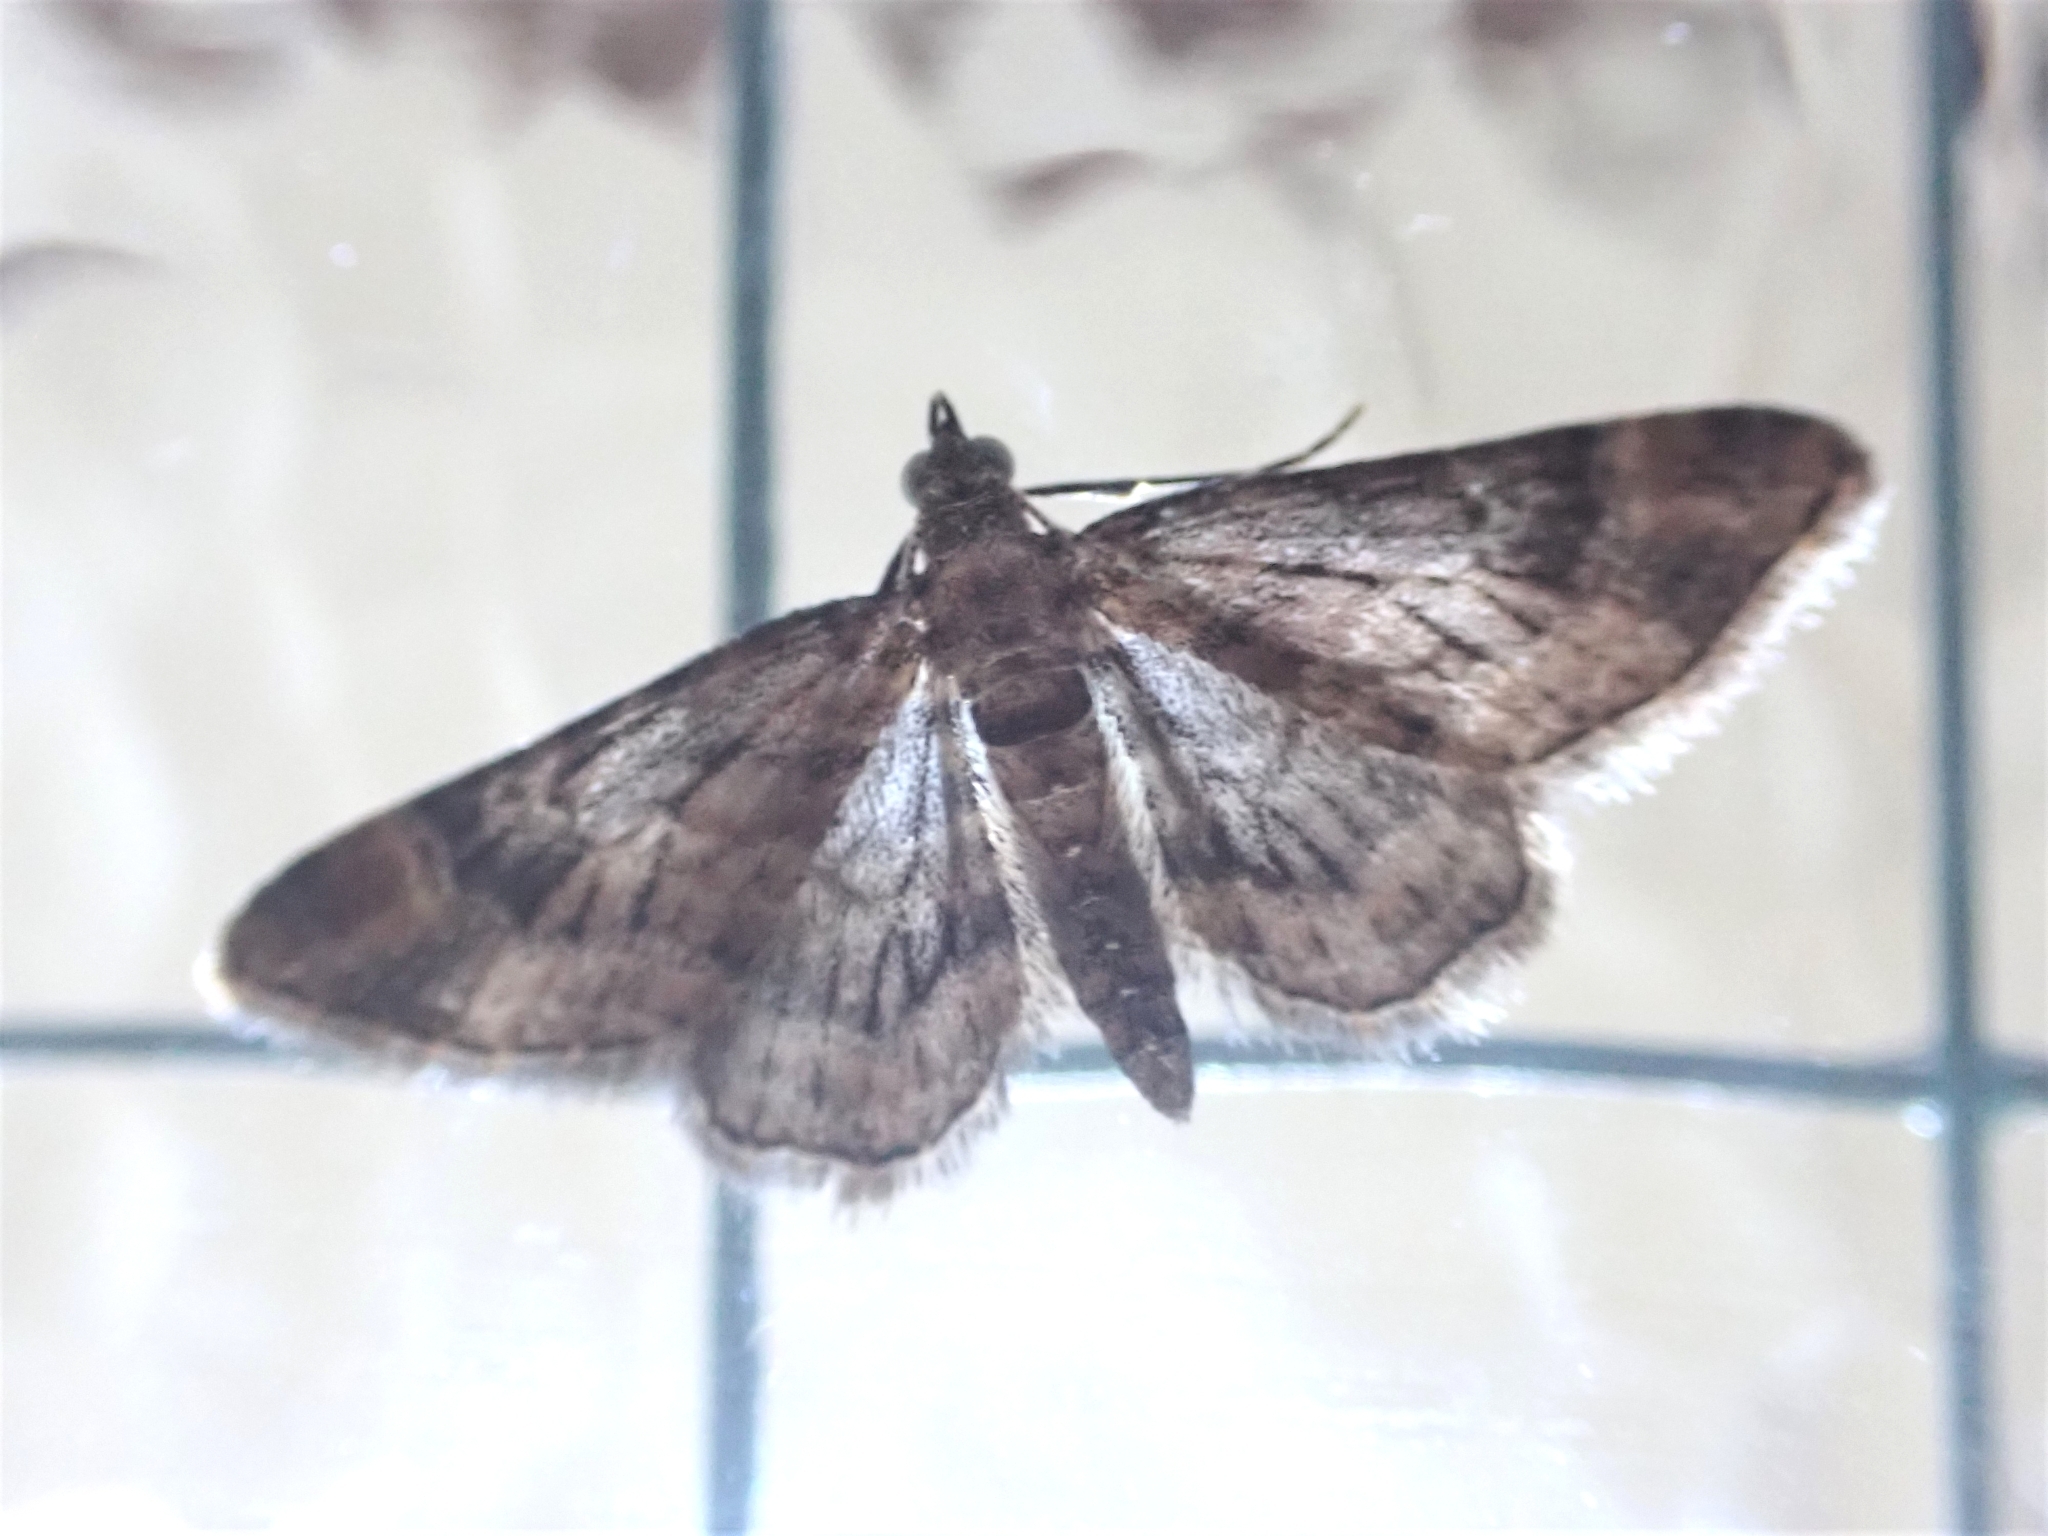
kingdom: Animalia
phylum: Arthropoda
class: Insecta
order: Lepidoptera
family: Geometridae
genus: Gymnoscelis
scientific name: Gymnoscelis rufifasciata
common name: Double-striped pug
